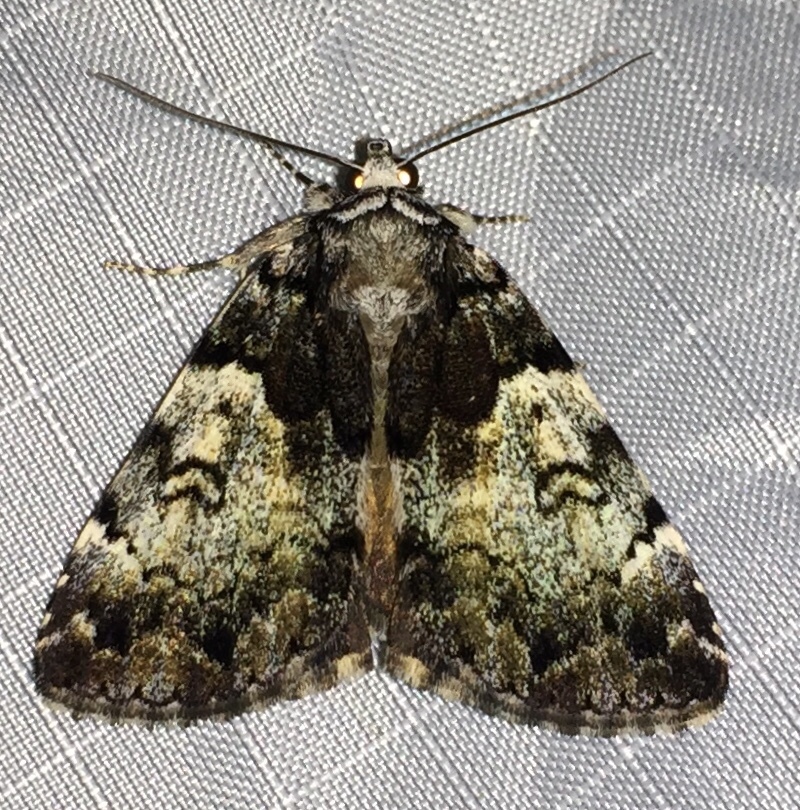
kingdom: Animalia
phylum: Arthropoda
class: Insecta
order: Lepidoptera
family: Erebidae
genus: Allotria
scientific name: Allotria elonympha
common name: False underwing
